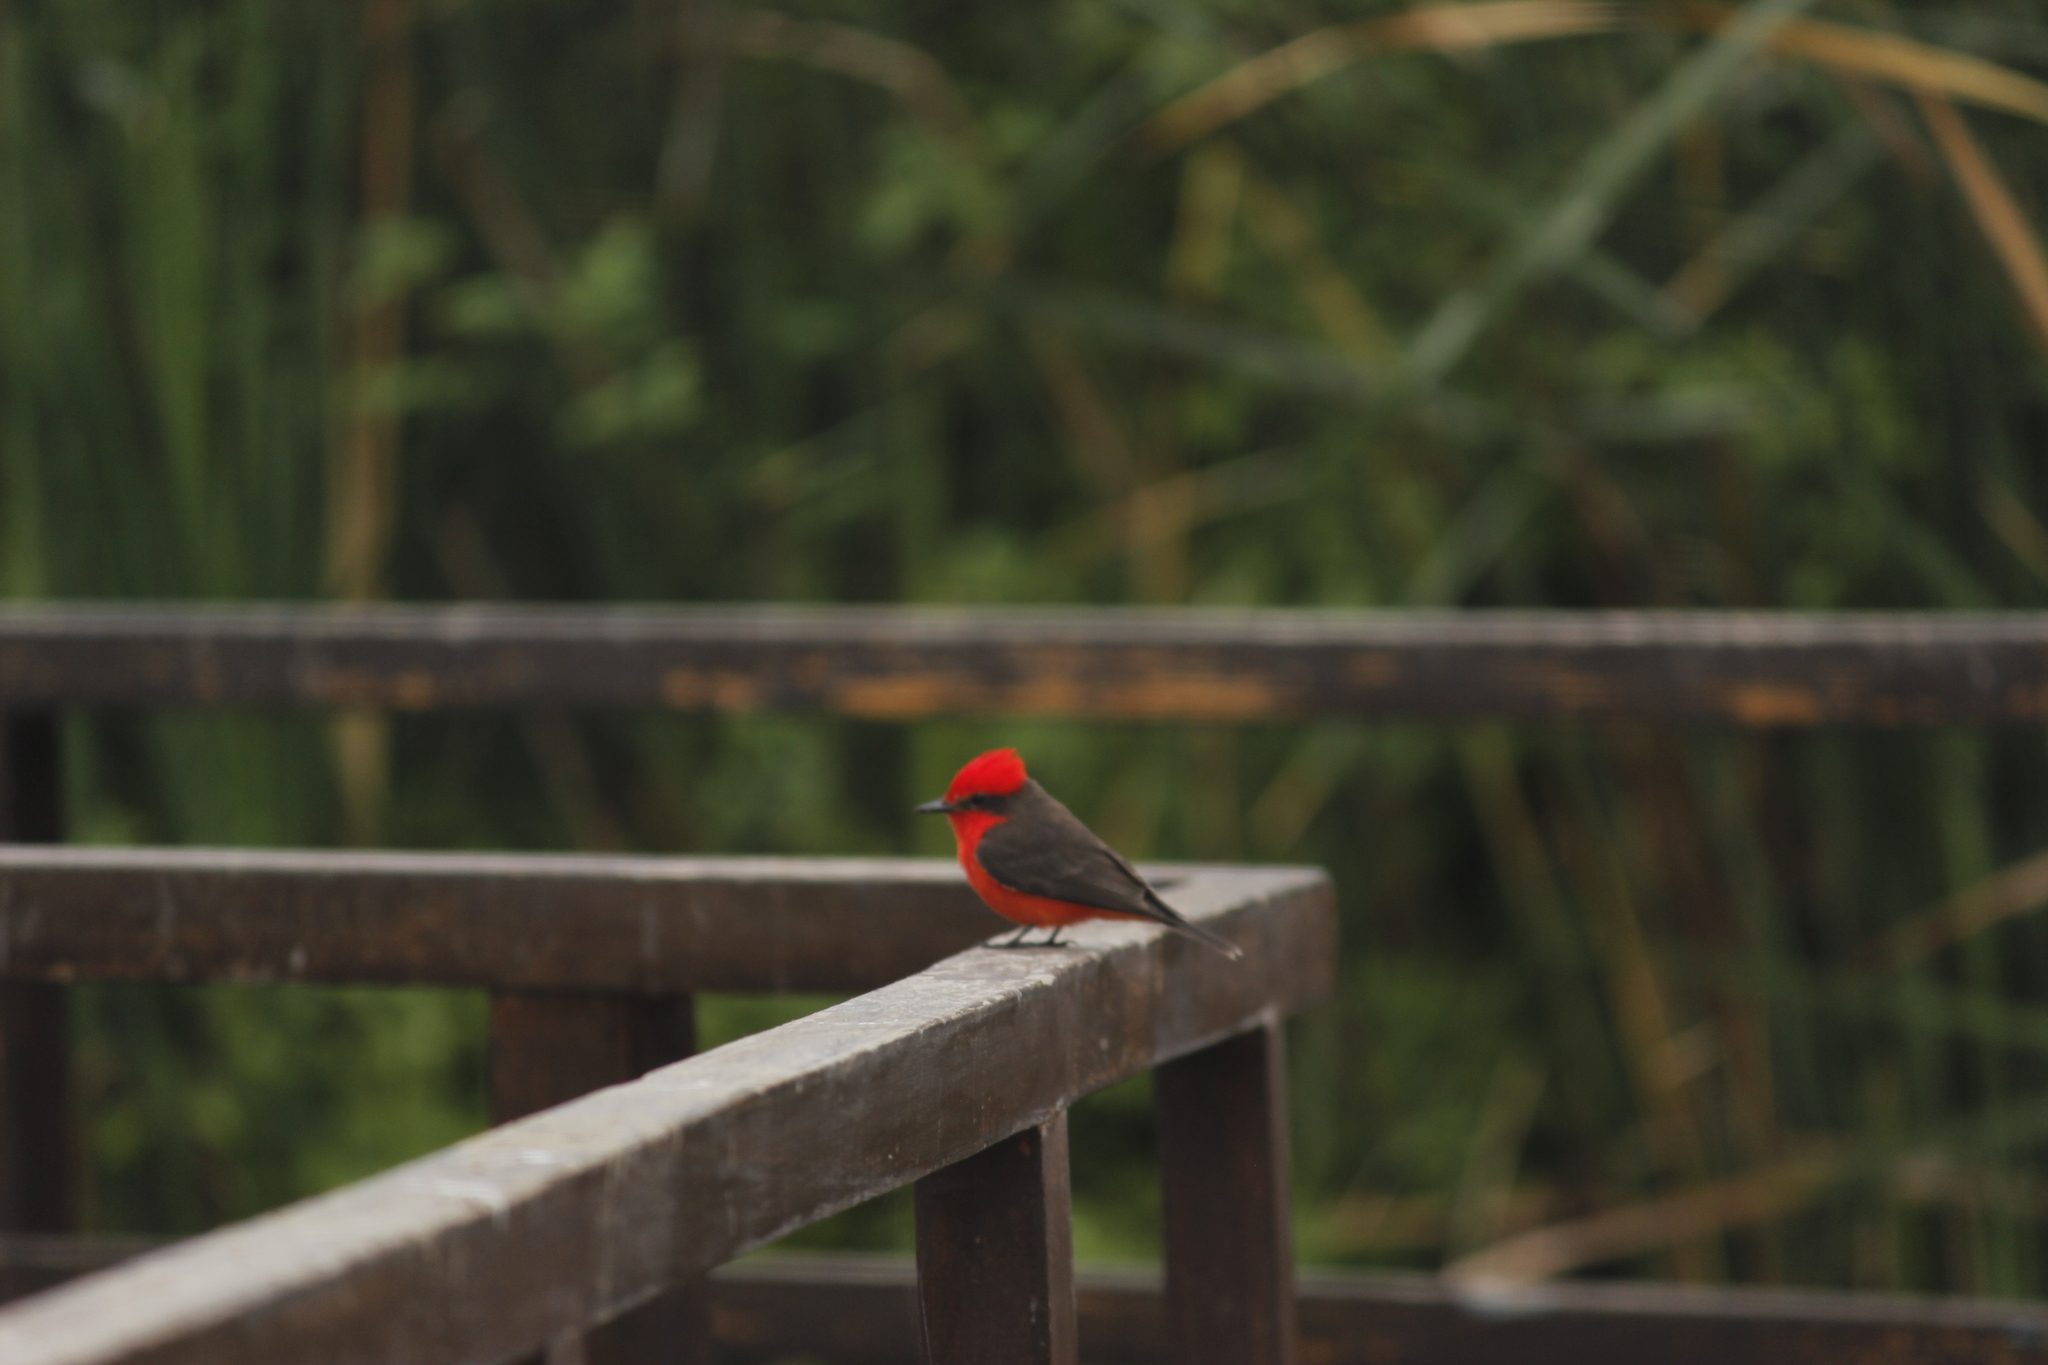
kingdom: Animalia
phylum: Chordata
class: Aves
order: Passeriformes
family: Tyrannidae
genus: Pyrocephalus
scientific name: Pyrocephalus rubinus
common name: Vermilion flycatcher
